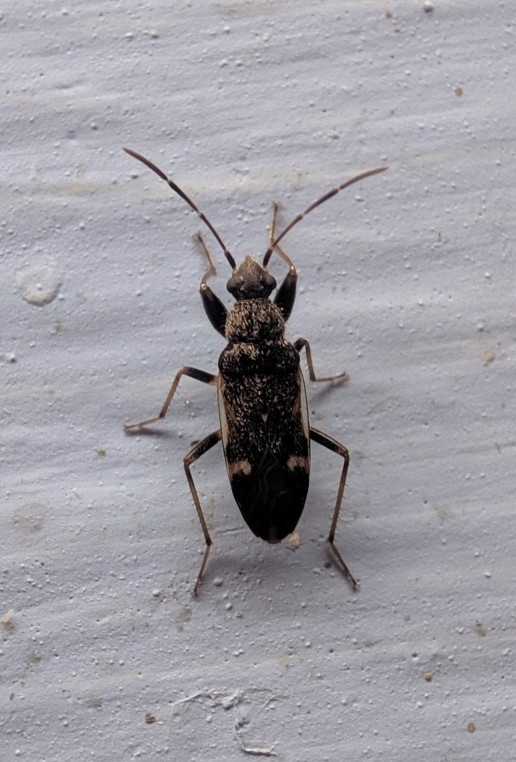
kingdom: Animalia
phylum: Arthropoda
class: Insecta
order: Hemiptera
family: Rhyparochromidae
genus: Horridipamera
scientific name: Horridipamera nietneri
